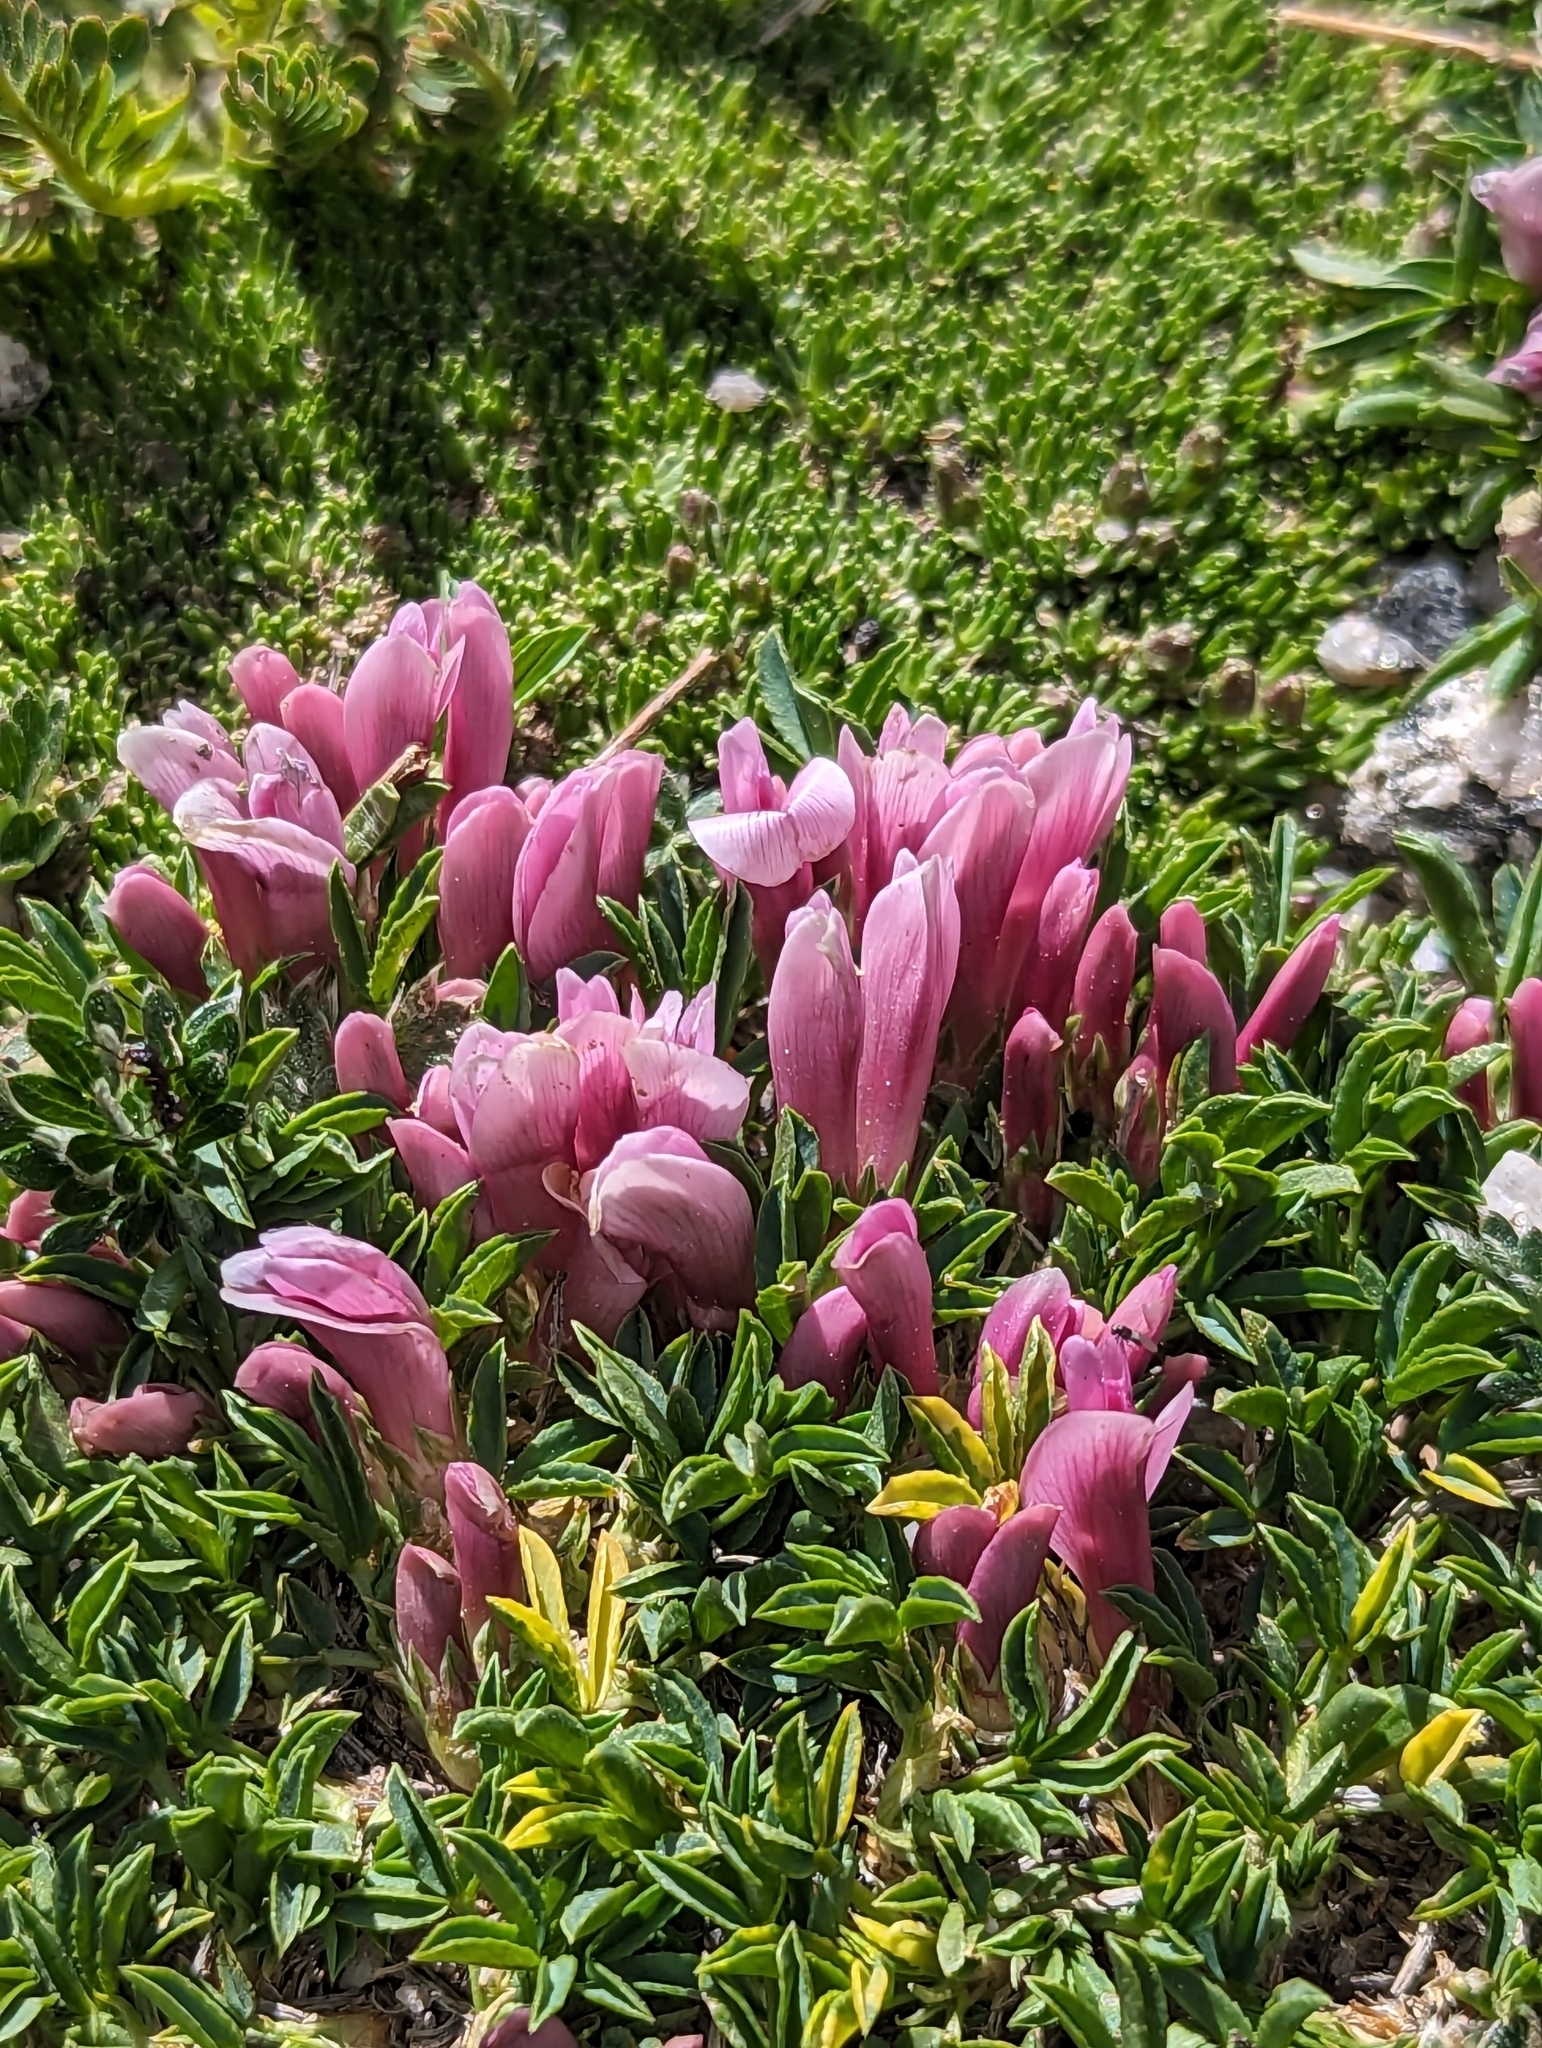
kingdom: Plantae
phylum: Tracheophyta
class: Magnoliopsida
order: Fabales
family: Fabaceae
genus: Trifolium
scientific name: Trifolium nanum
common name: Tundra clover
